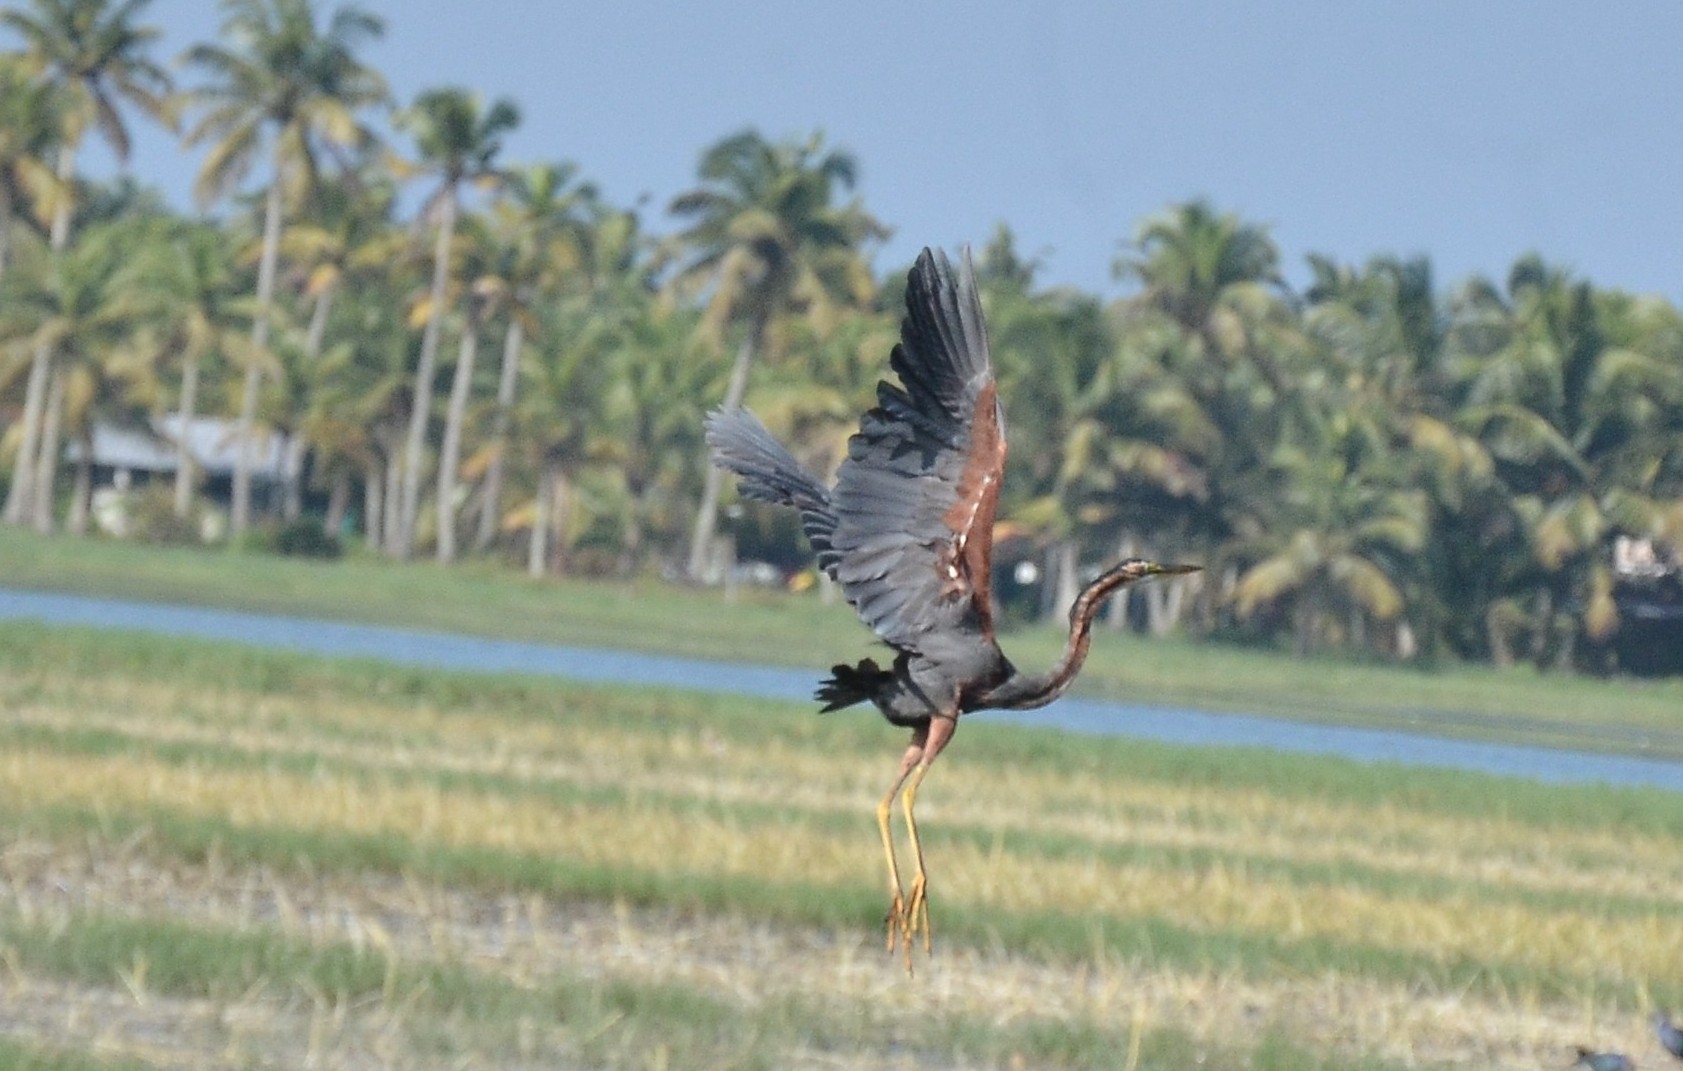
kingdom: Animalia
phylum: Chordata
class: Aves
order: Pelecaniformes
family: Ardeidae
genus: Ardea
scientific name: Ardea purpurea
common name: Purple heron
